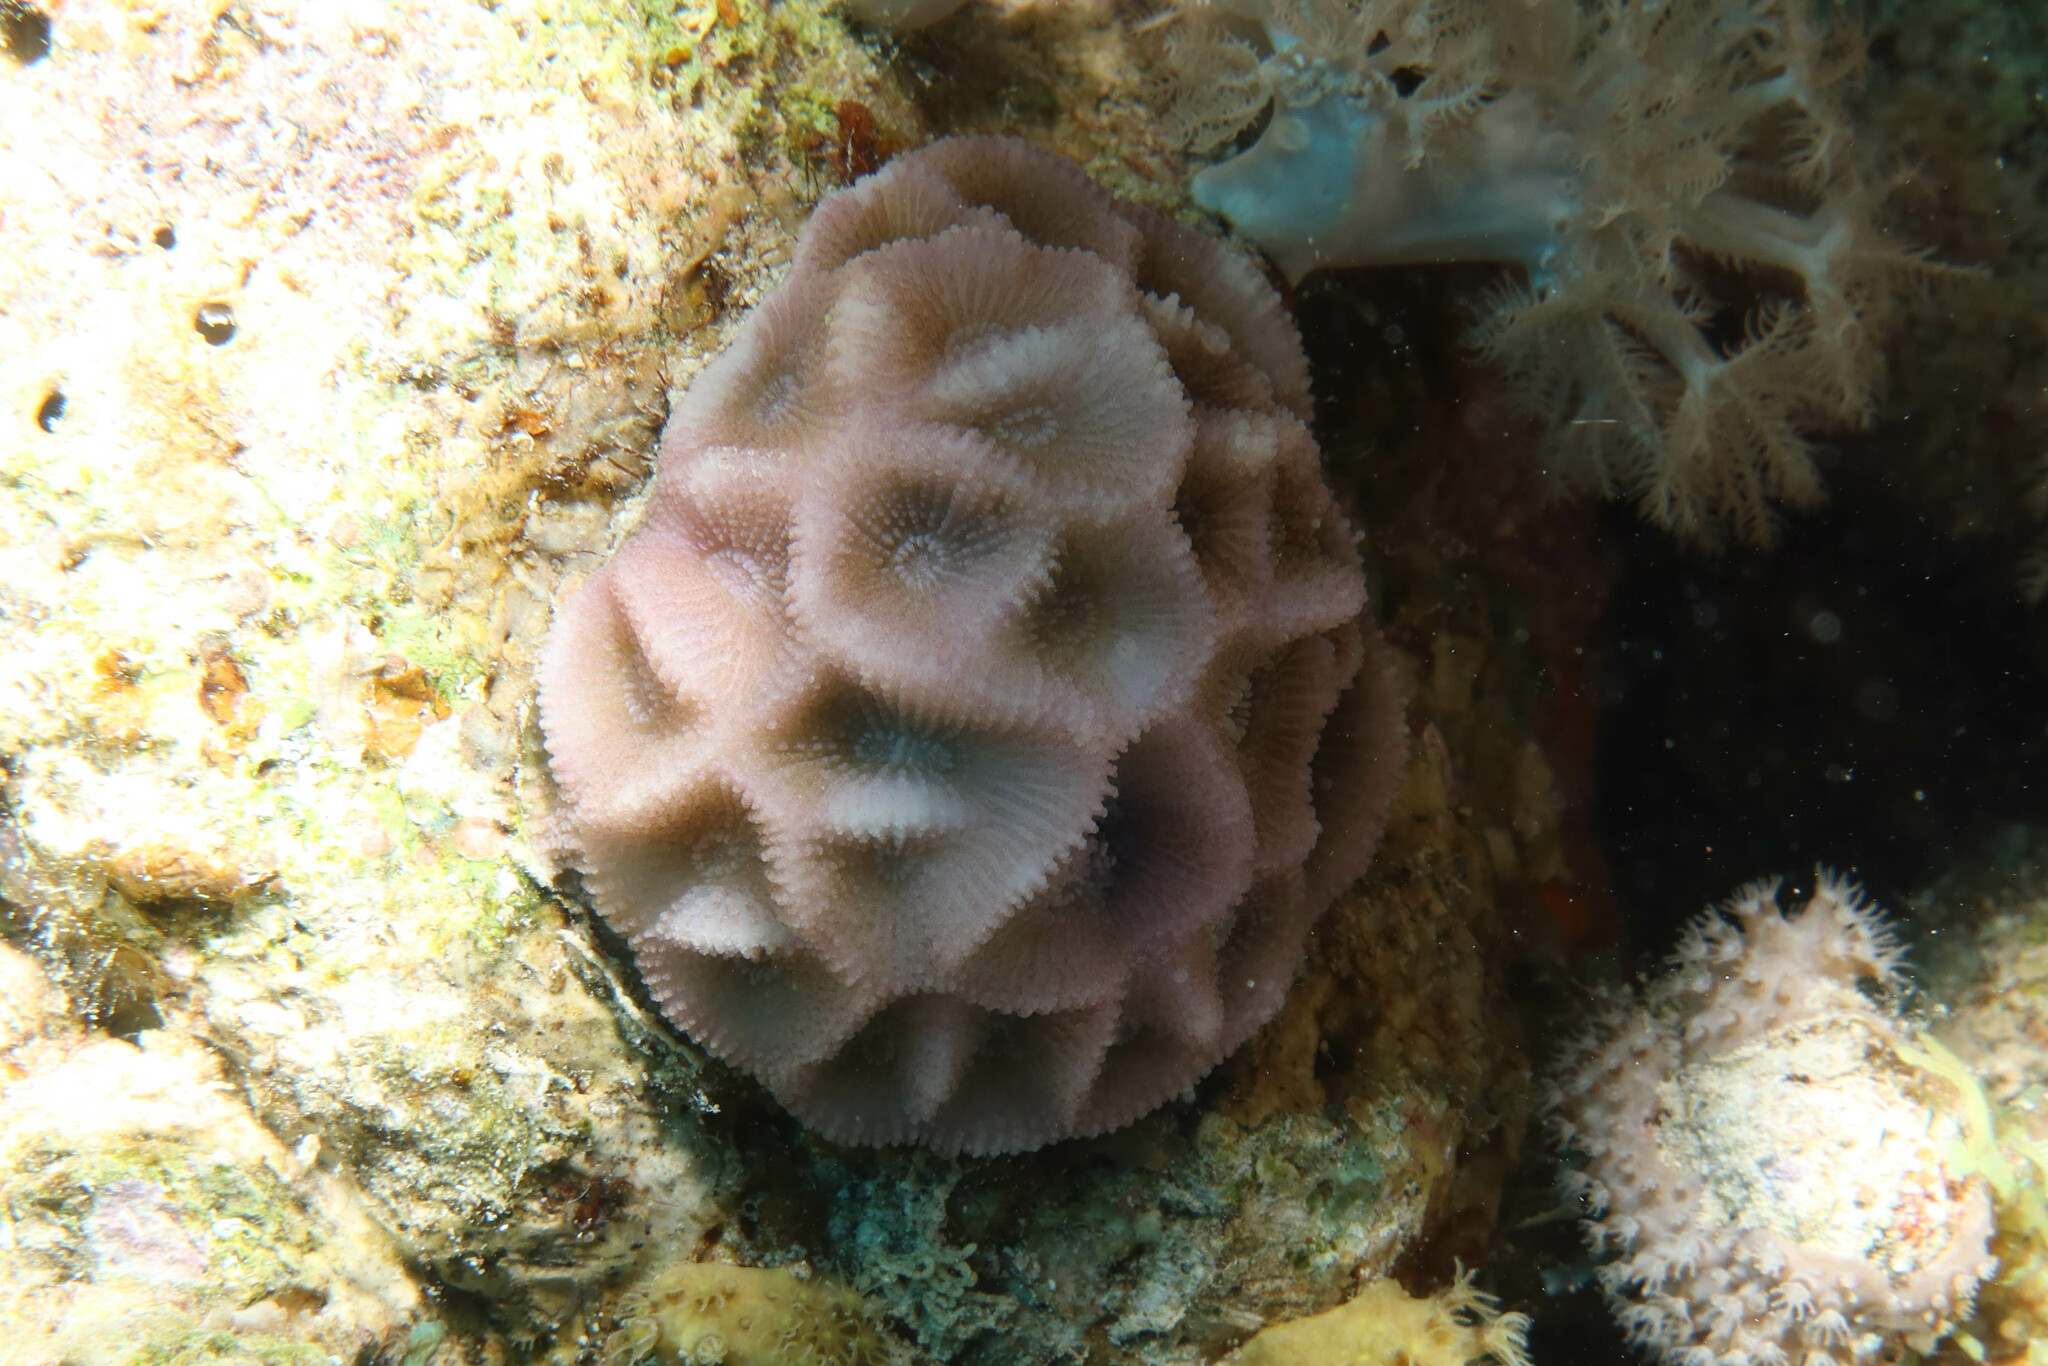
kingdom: Animalia
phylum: Cnidaria
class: Anthozoa
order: Scleractinia
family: Merulinidae
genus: Paramontastraea
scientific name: Paramontastraea peresi
